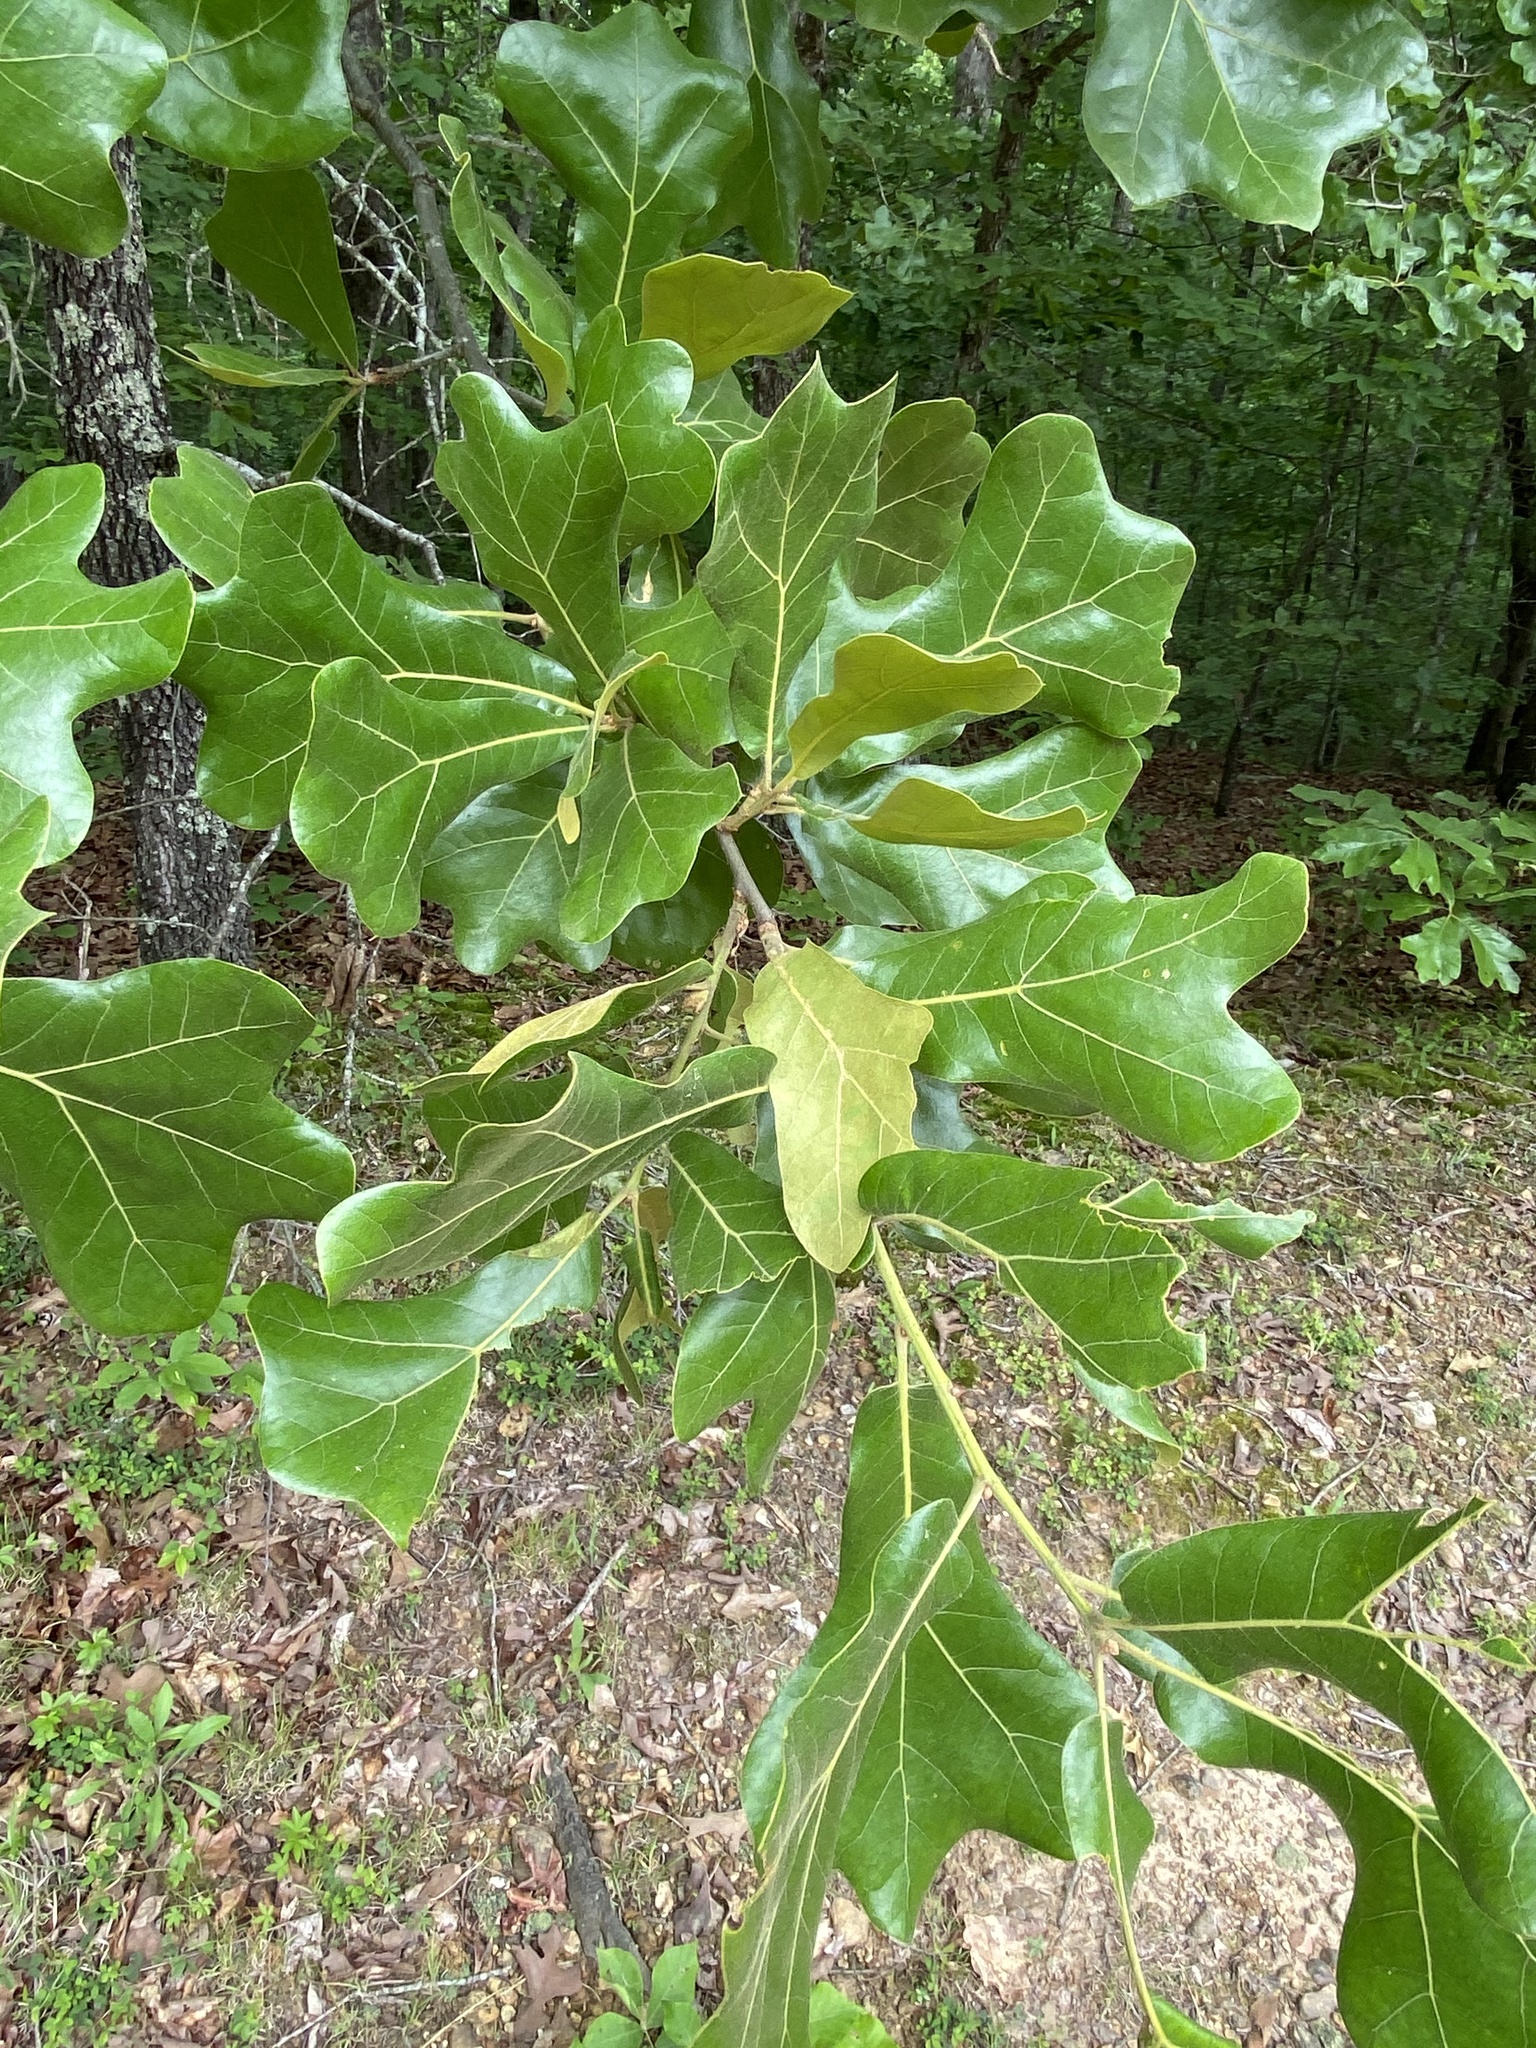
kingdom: Plantae
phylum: Tracheophyta
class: Magnoliopsida
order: Fagales
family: Fagaceae
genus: Quercus
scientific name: Quercus marilandica
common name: Blackjack oak
